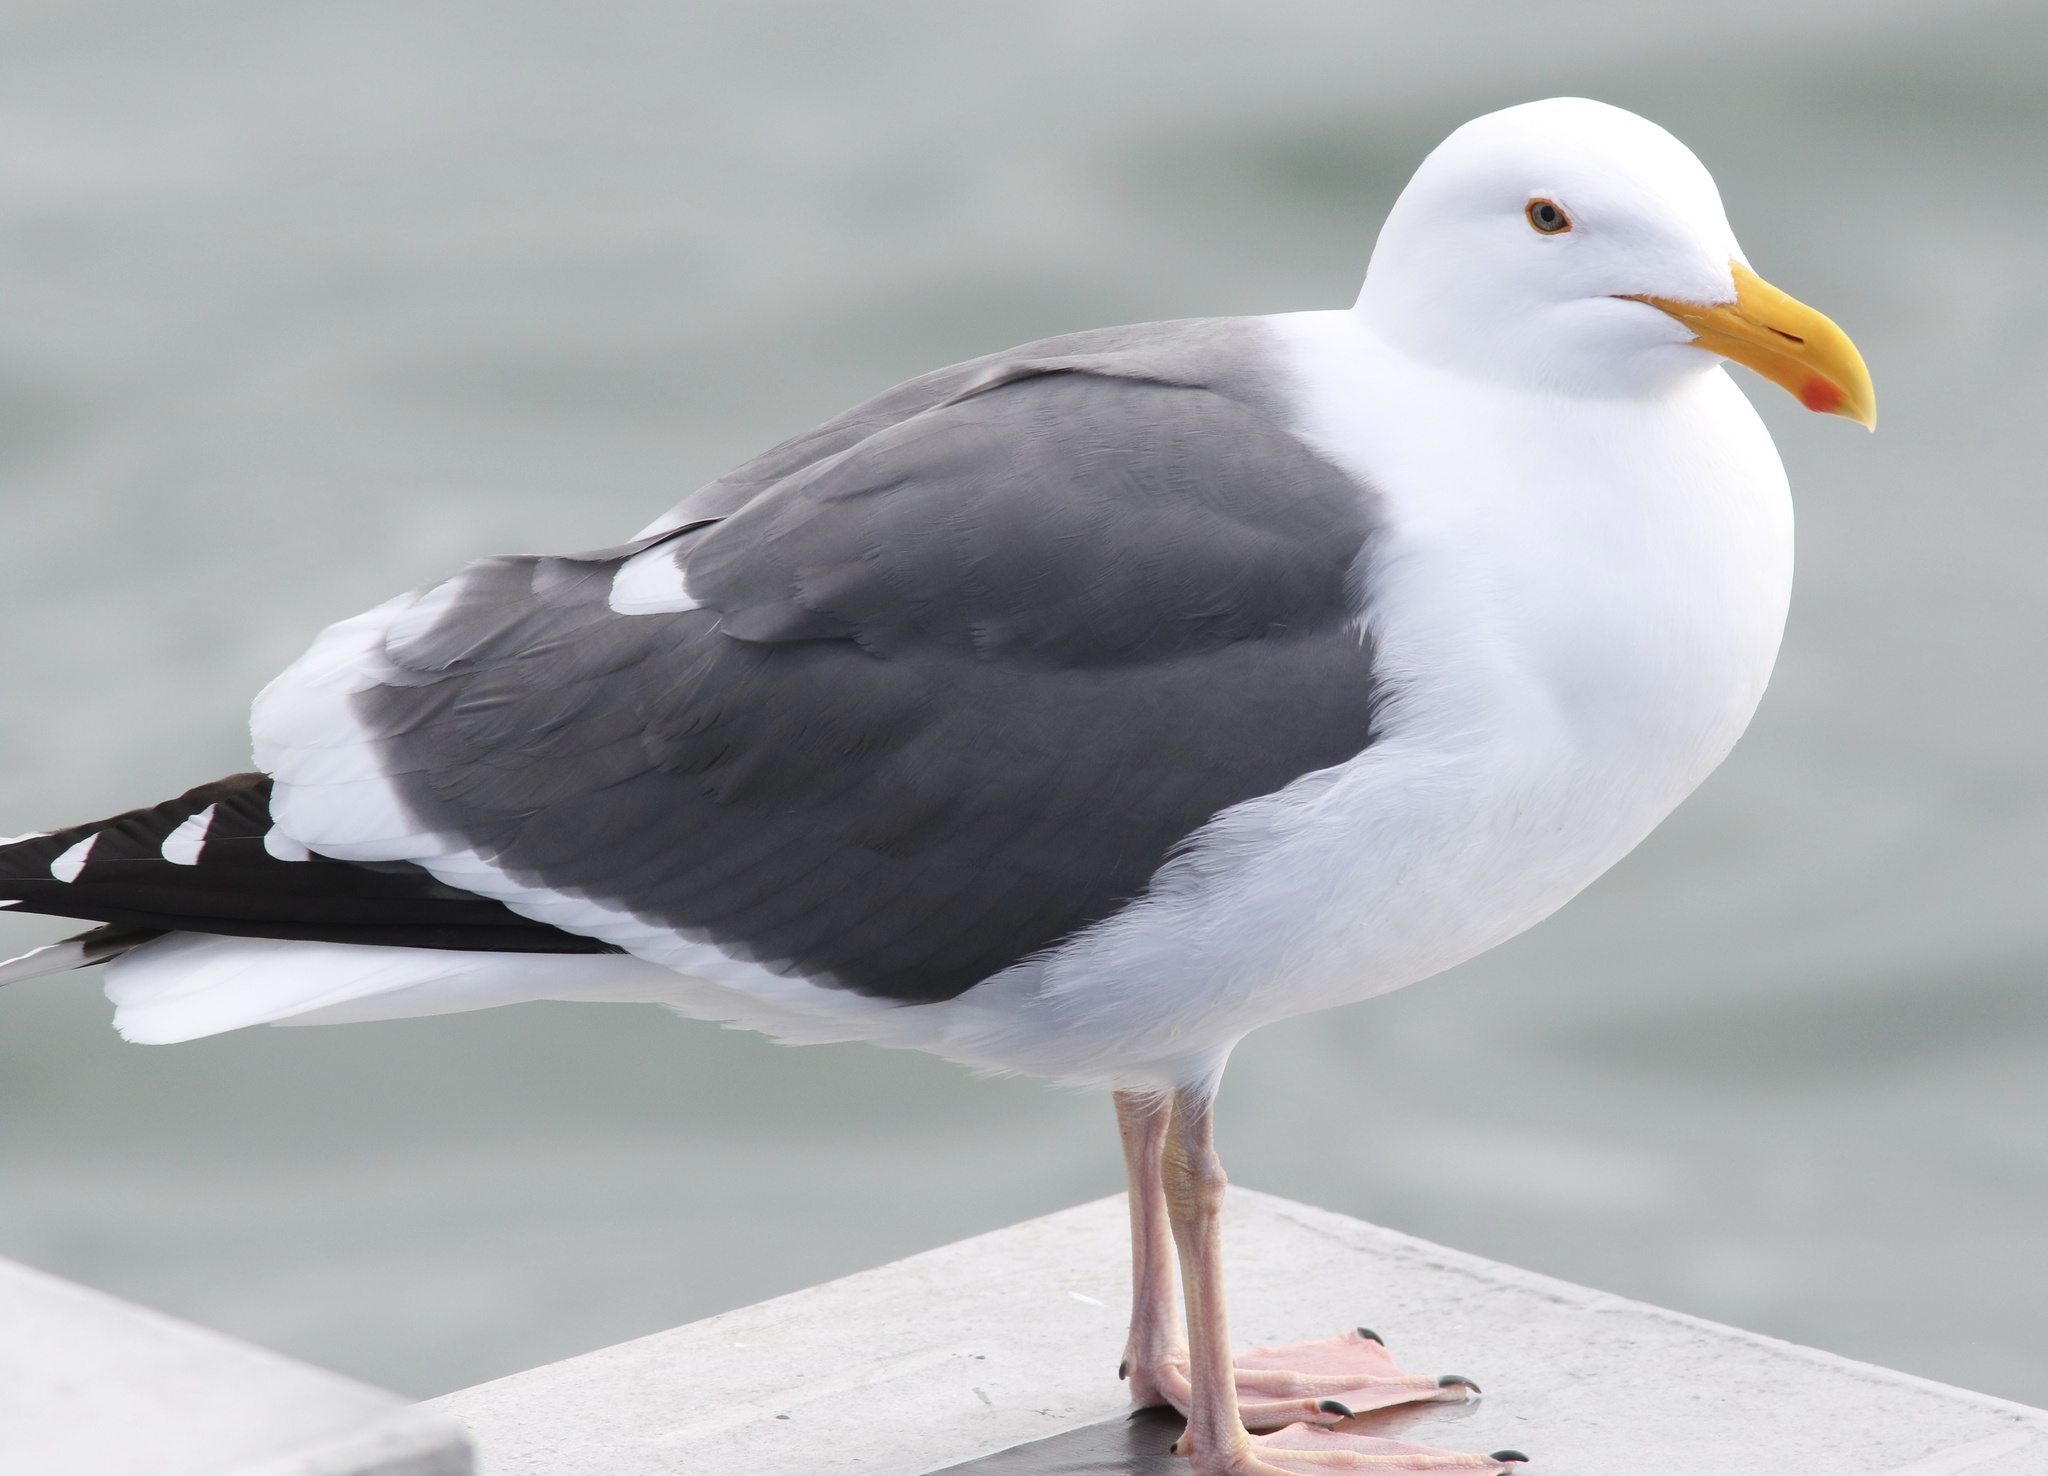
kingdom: Animalia
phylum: Chordata
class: Aves
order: Charadriiformes
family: Laridae
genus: Larus
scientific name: Larus occidentalis
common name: Western gull
